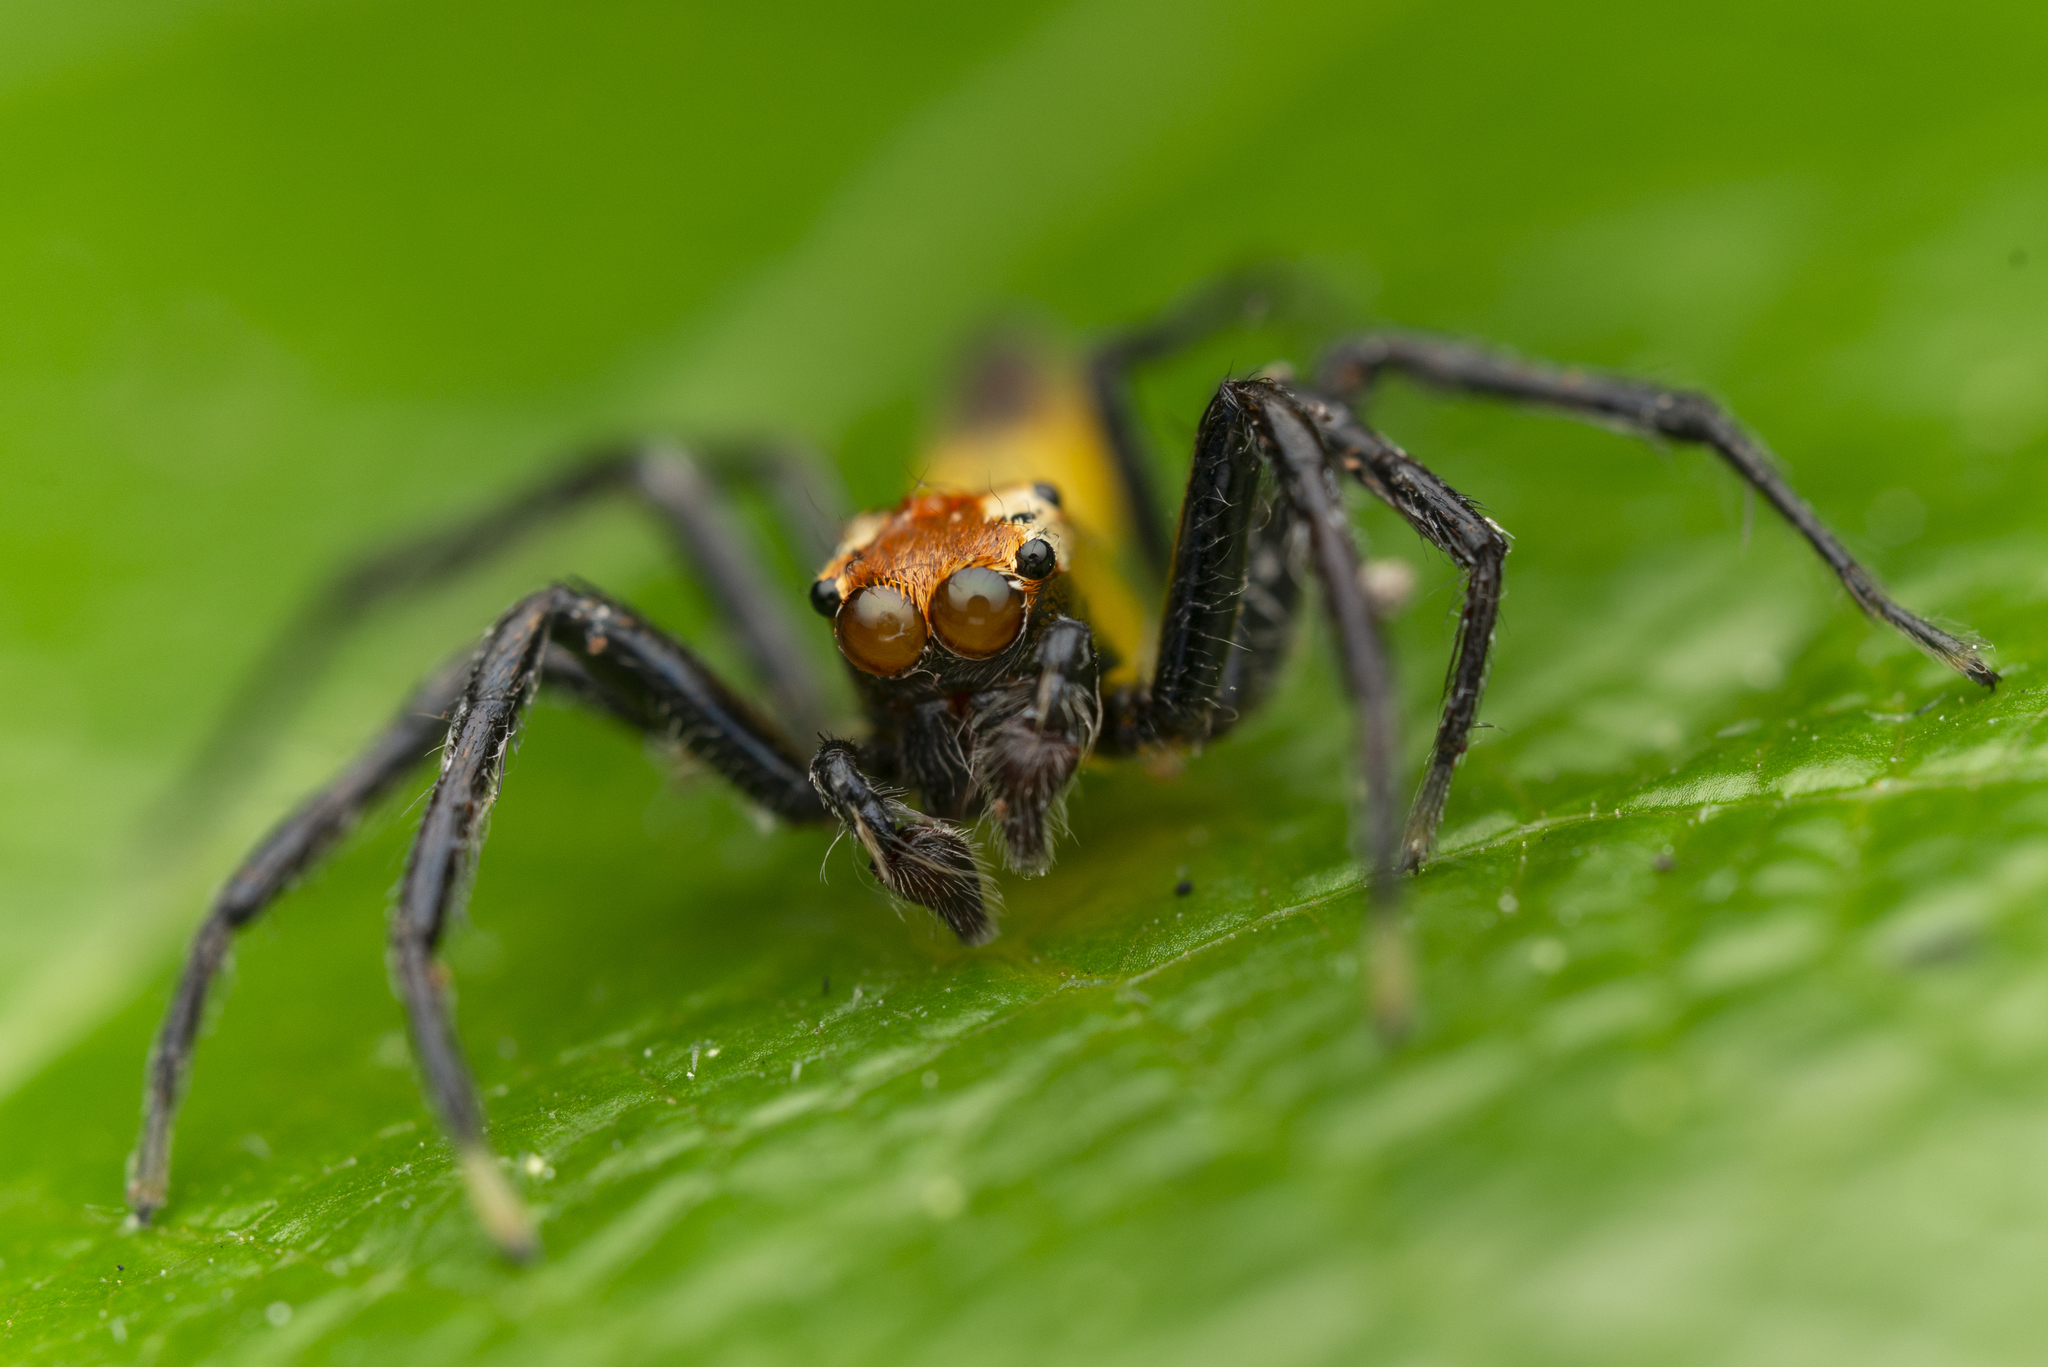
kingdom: Animalia
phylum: Arthropoda
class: Arachnida
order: Araneae
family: Salticidae
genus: Epeus
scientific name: Epeus glorius
